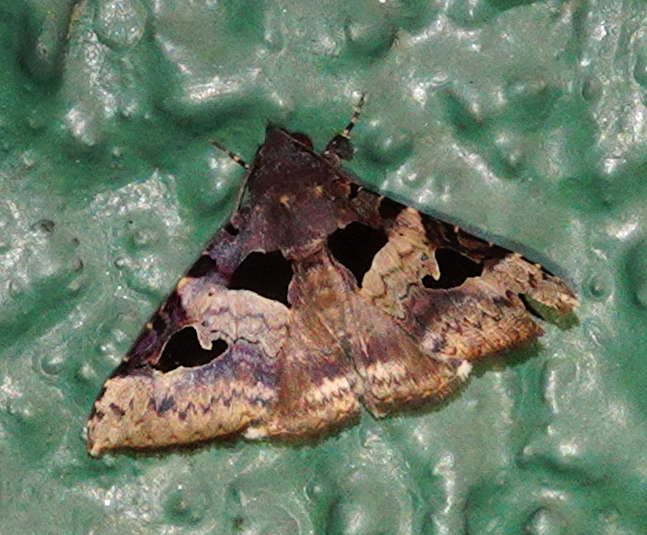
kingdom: Animalia
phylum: Arthropoda
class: Insecta
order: Lepidoptera
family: Erebidae
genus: Avatha
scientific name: Avatha bubo
